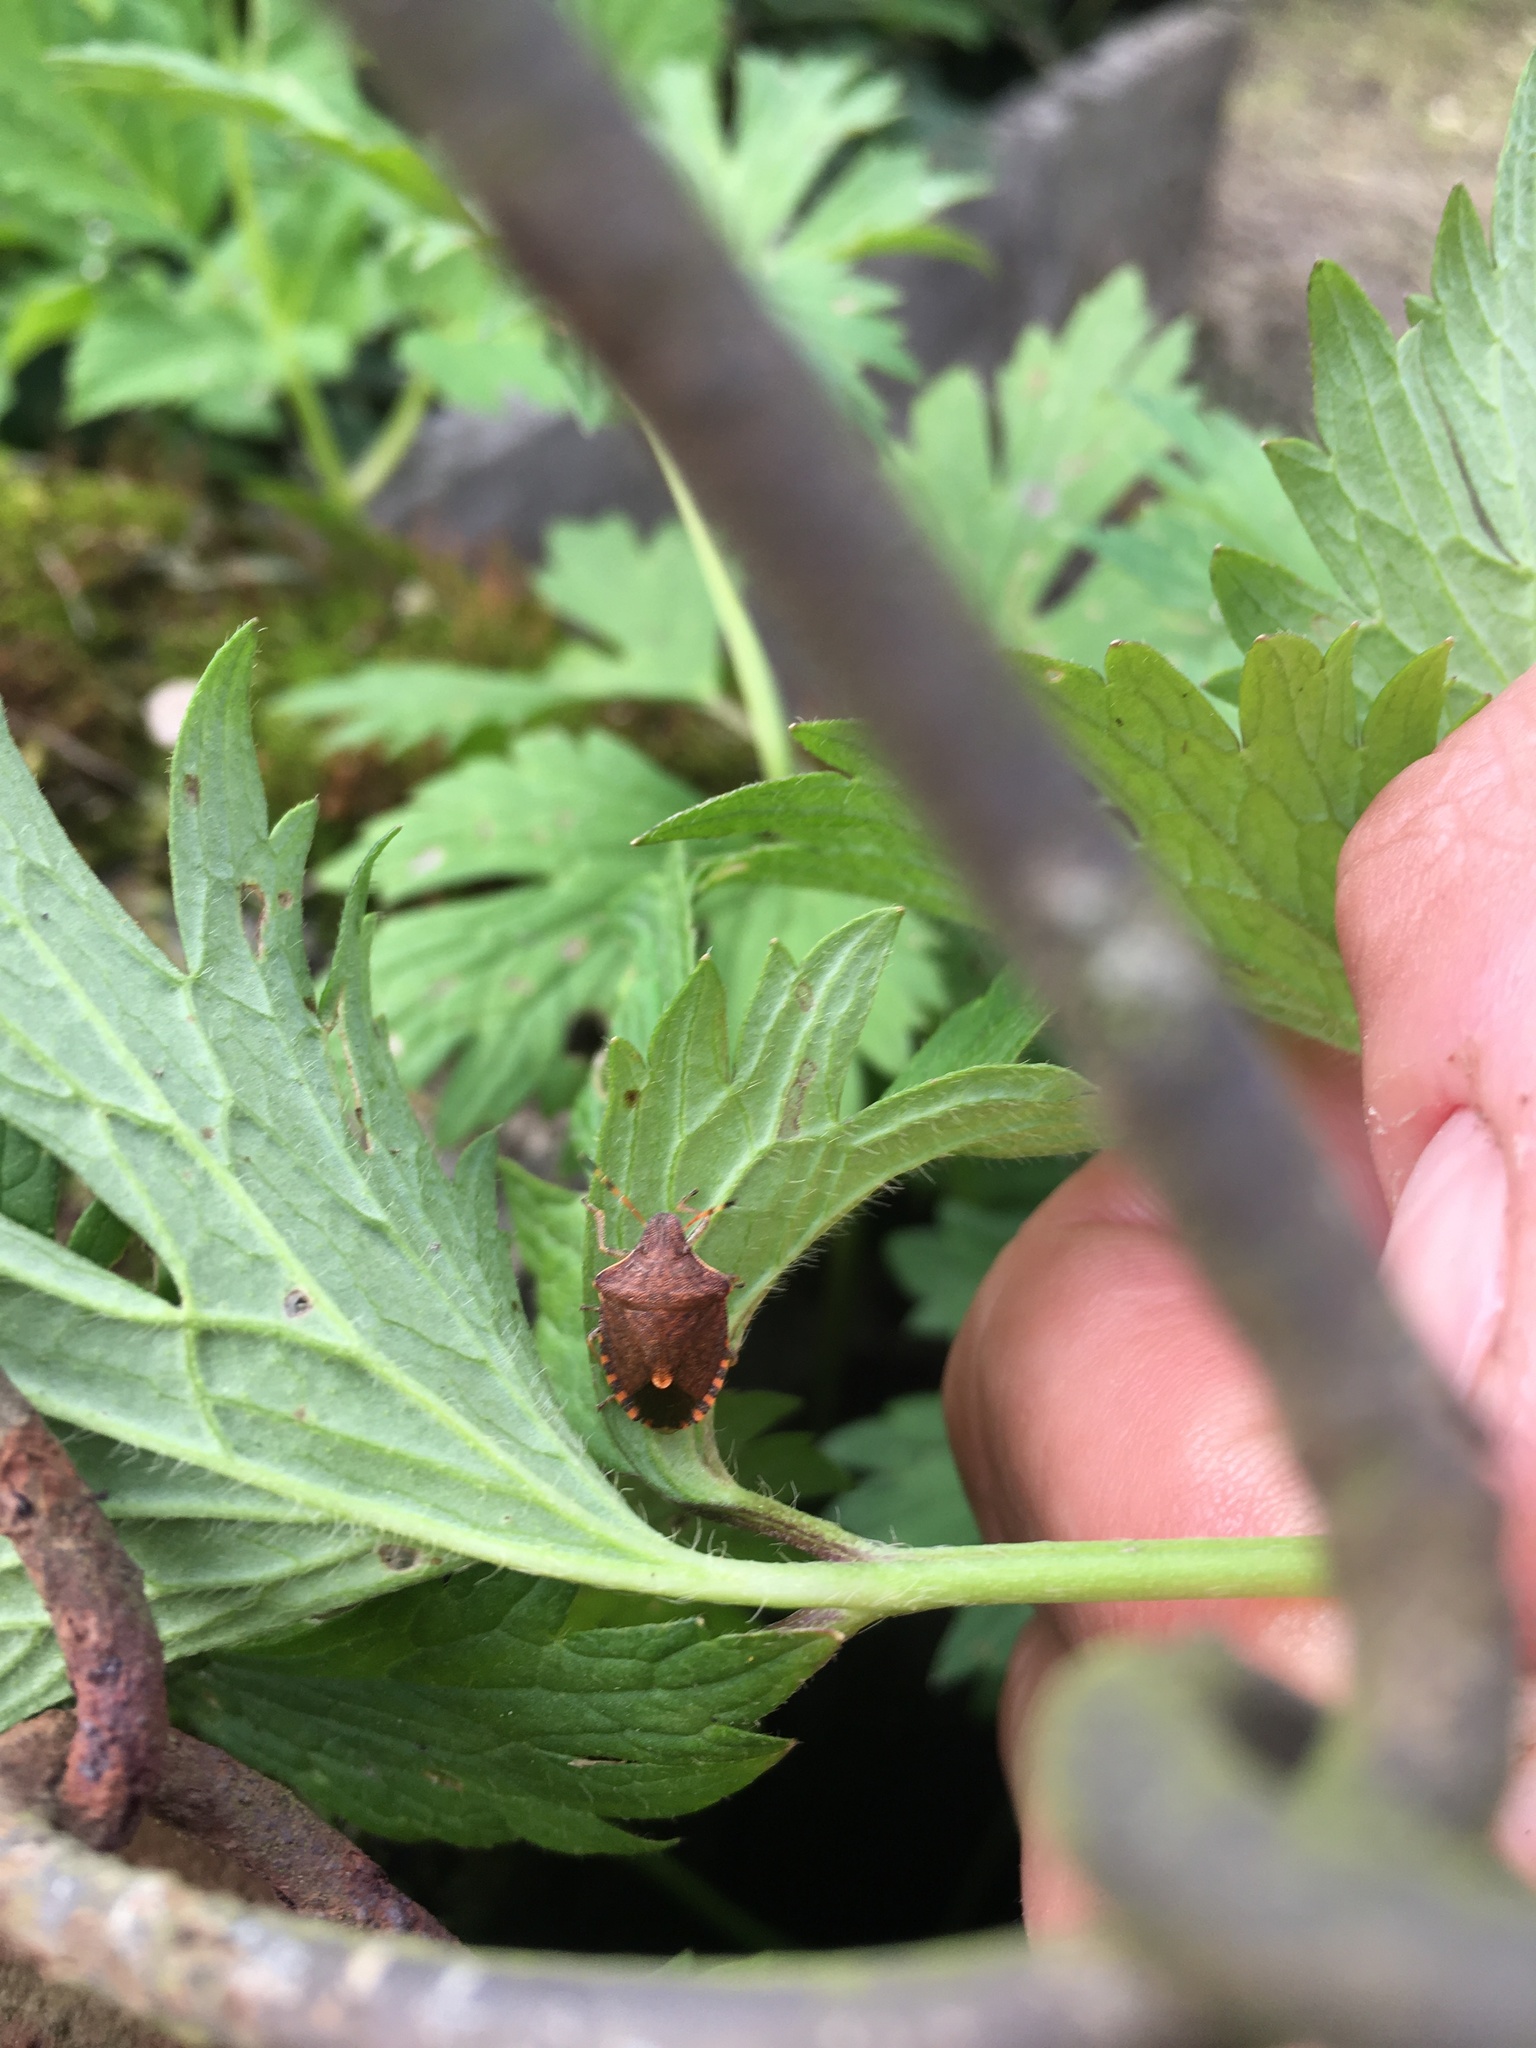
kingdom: Animalia
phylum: Arthropoda
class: Insecta
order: Hemiptera
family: Pentatomidae
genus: Holcostethus
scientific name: Holcostethus strictus
